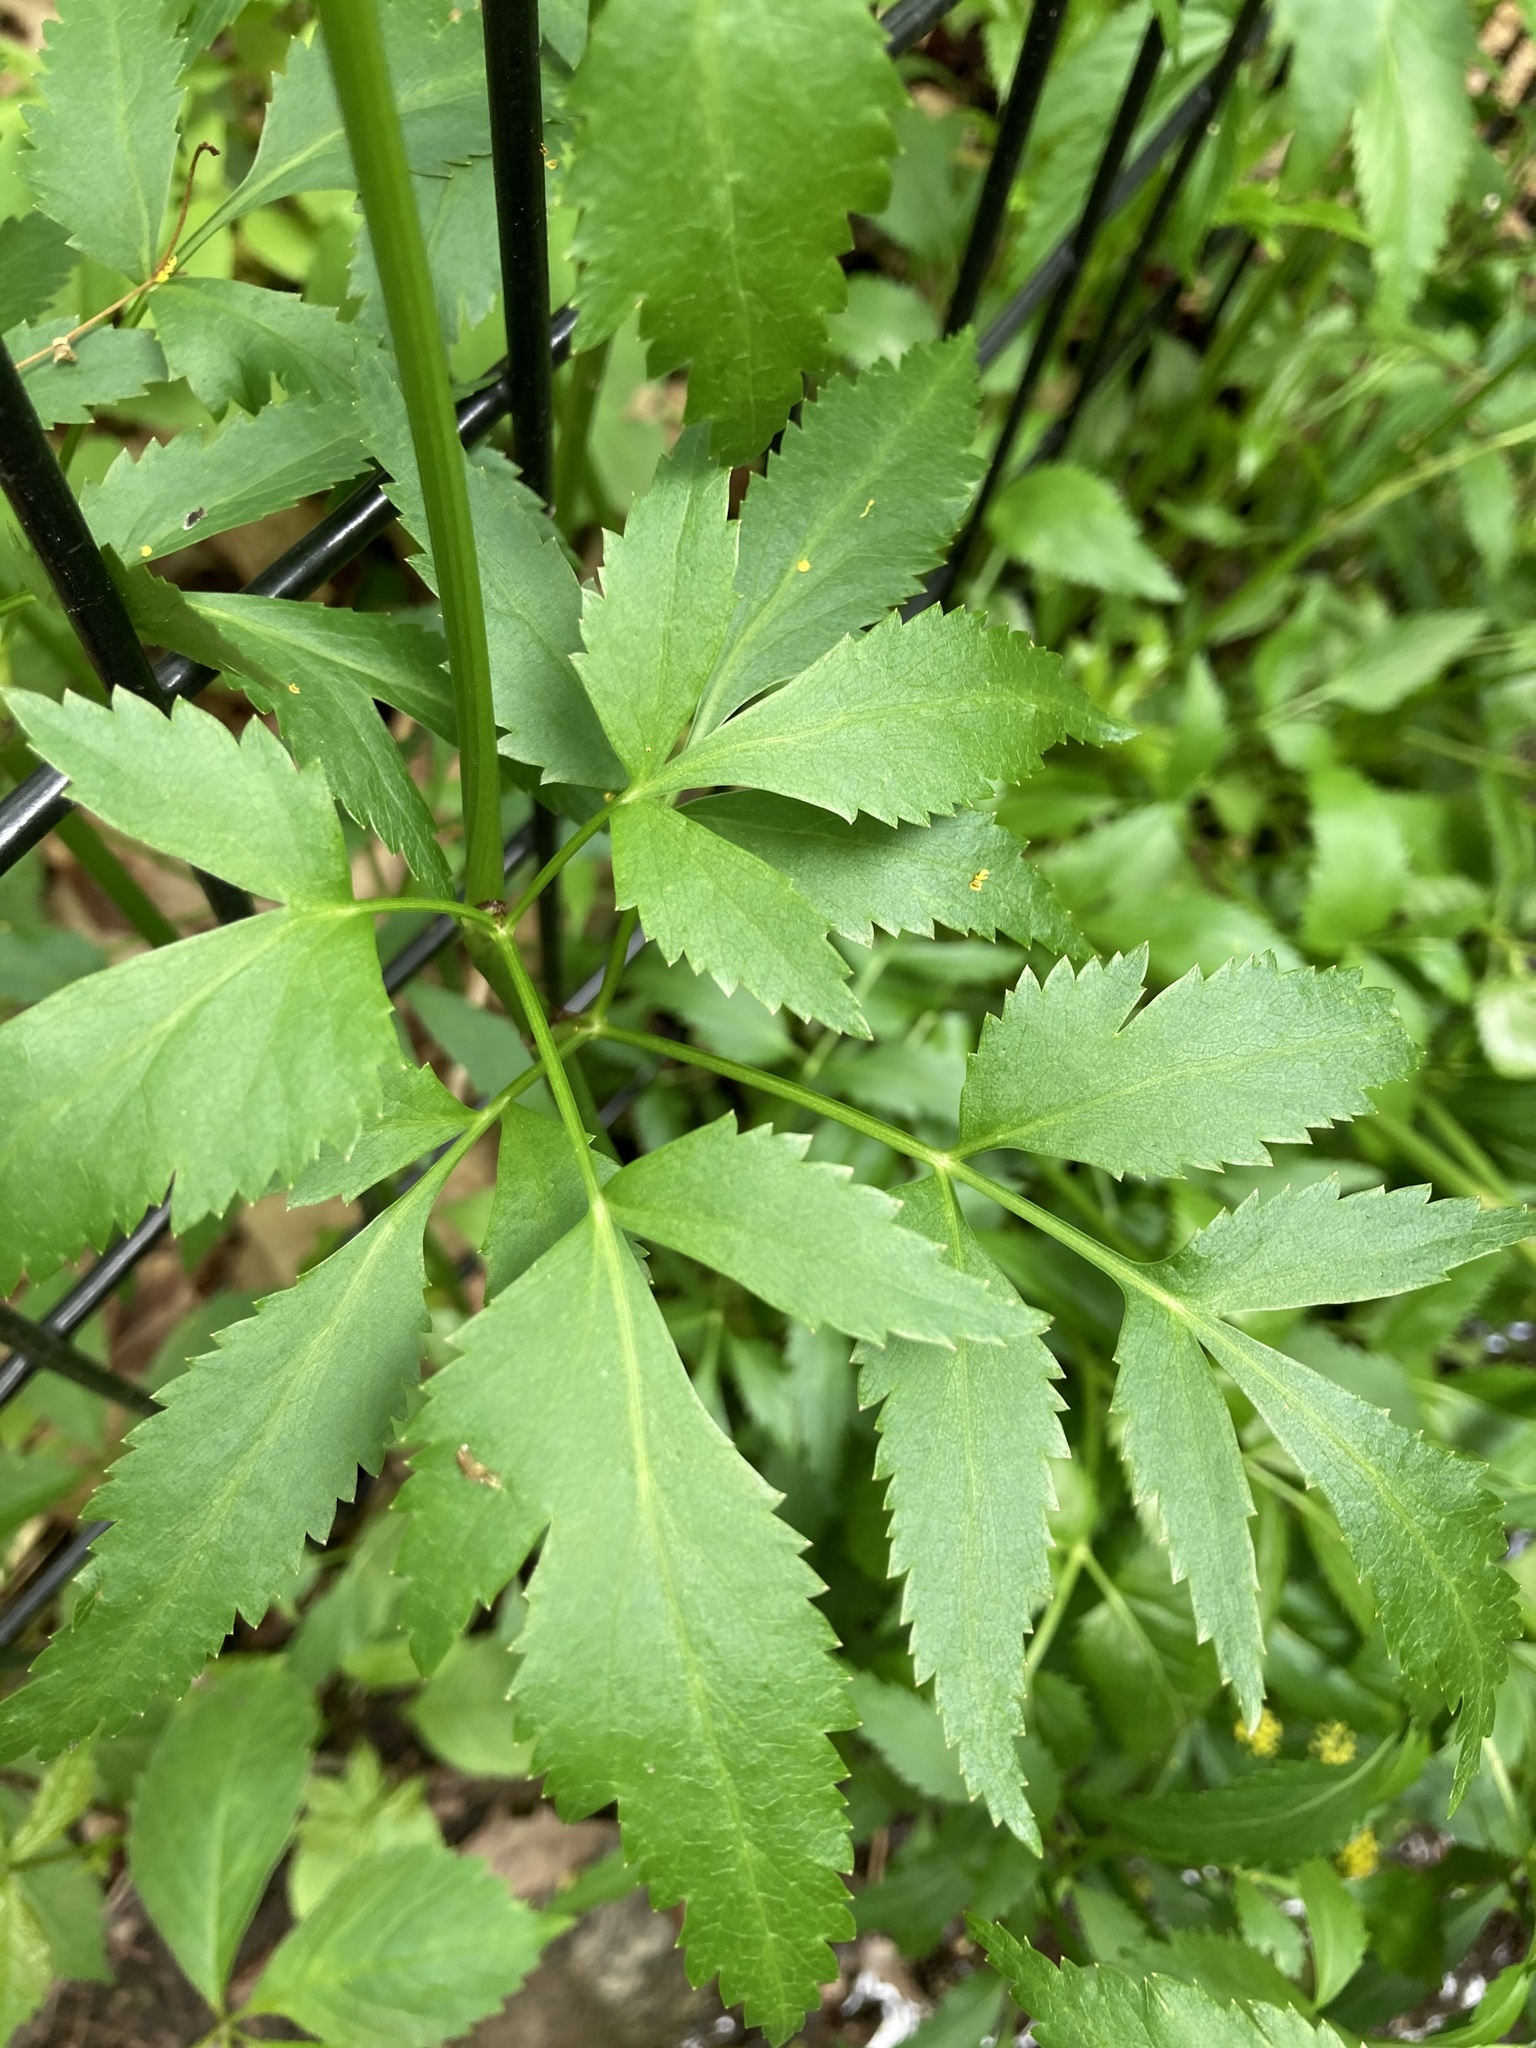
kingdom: Plantae
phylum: Tracheophyta
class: Magnoliopsida
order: Apiales
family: Apiaceae
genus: Zizia
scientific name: Zizia aurea
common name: Golden alexanders
